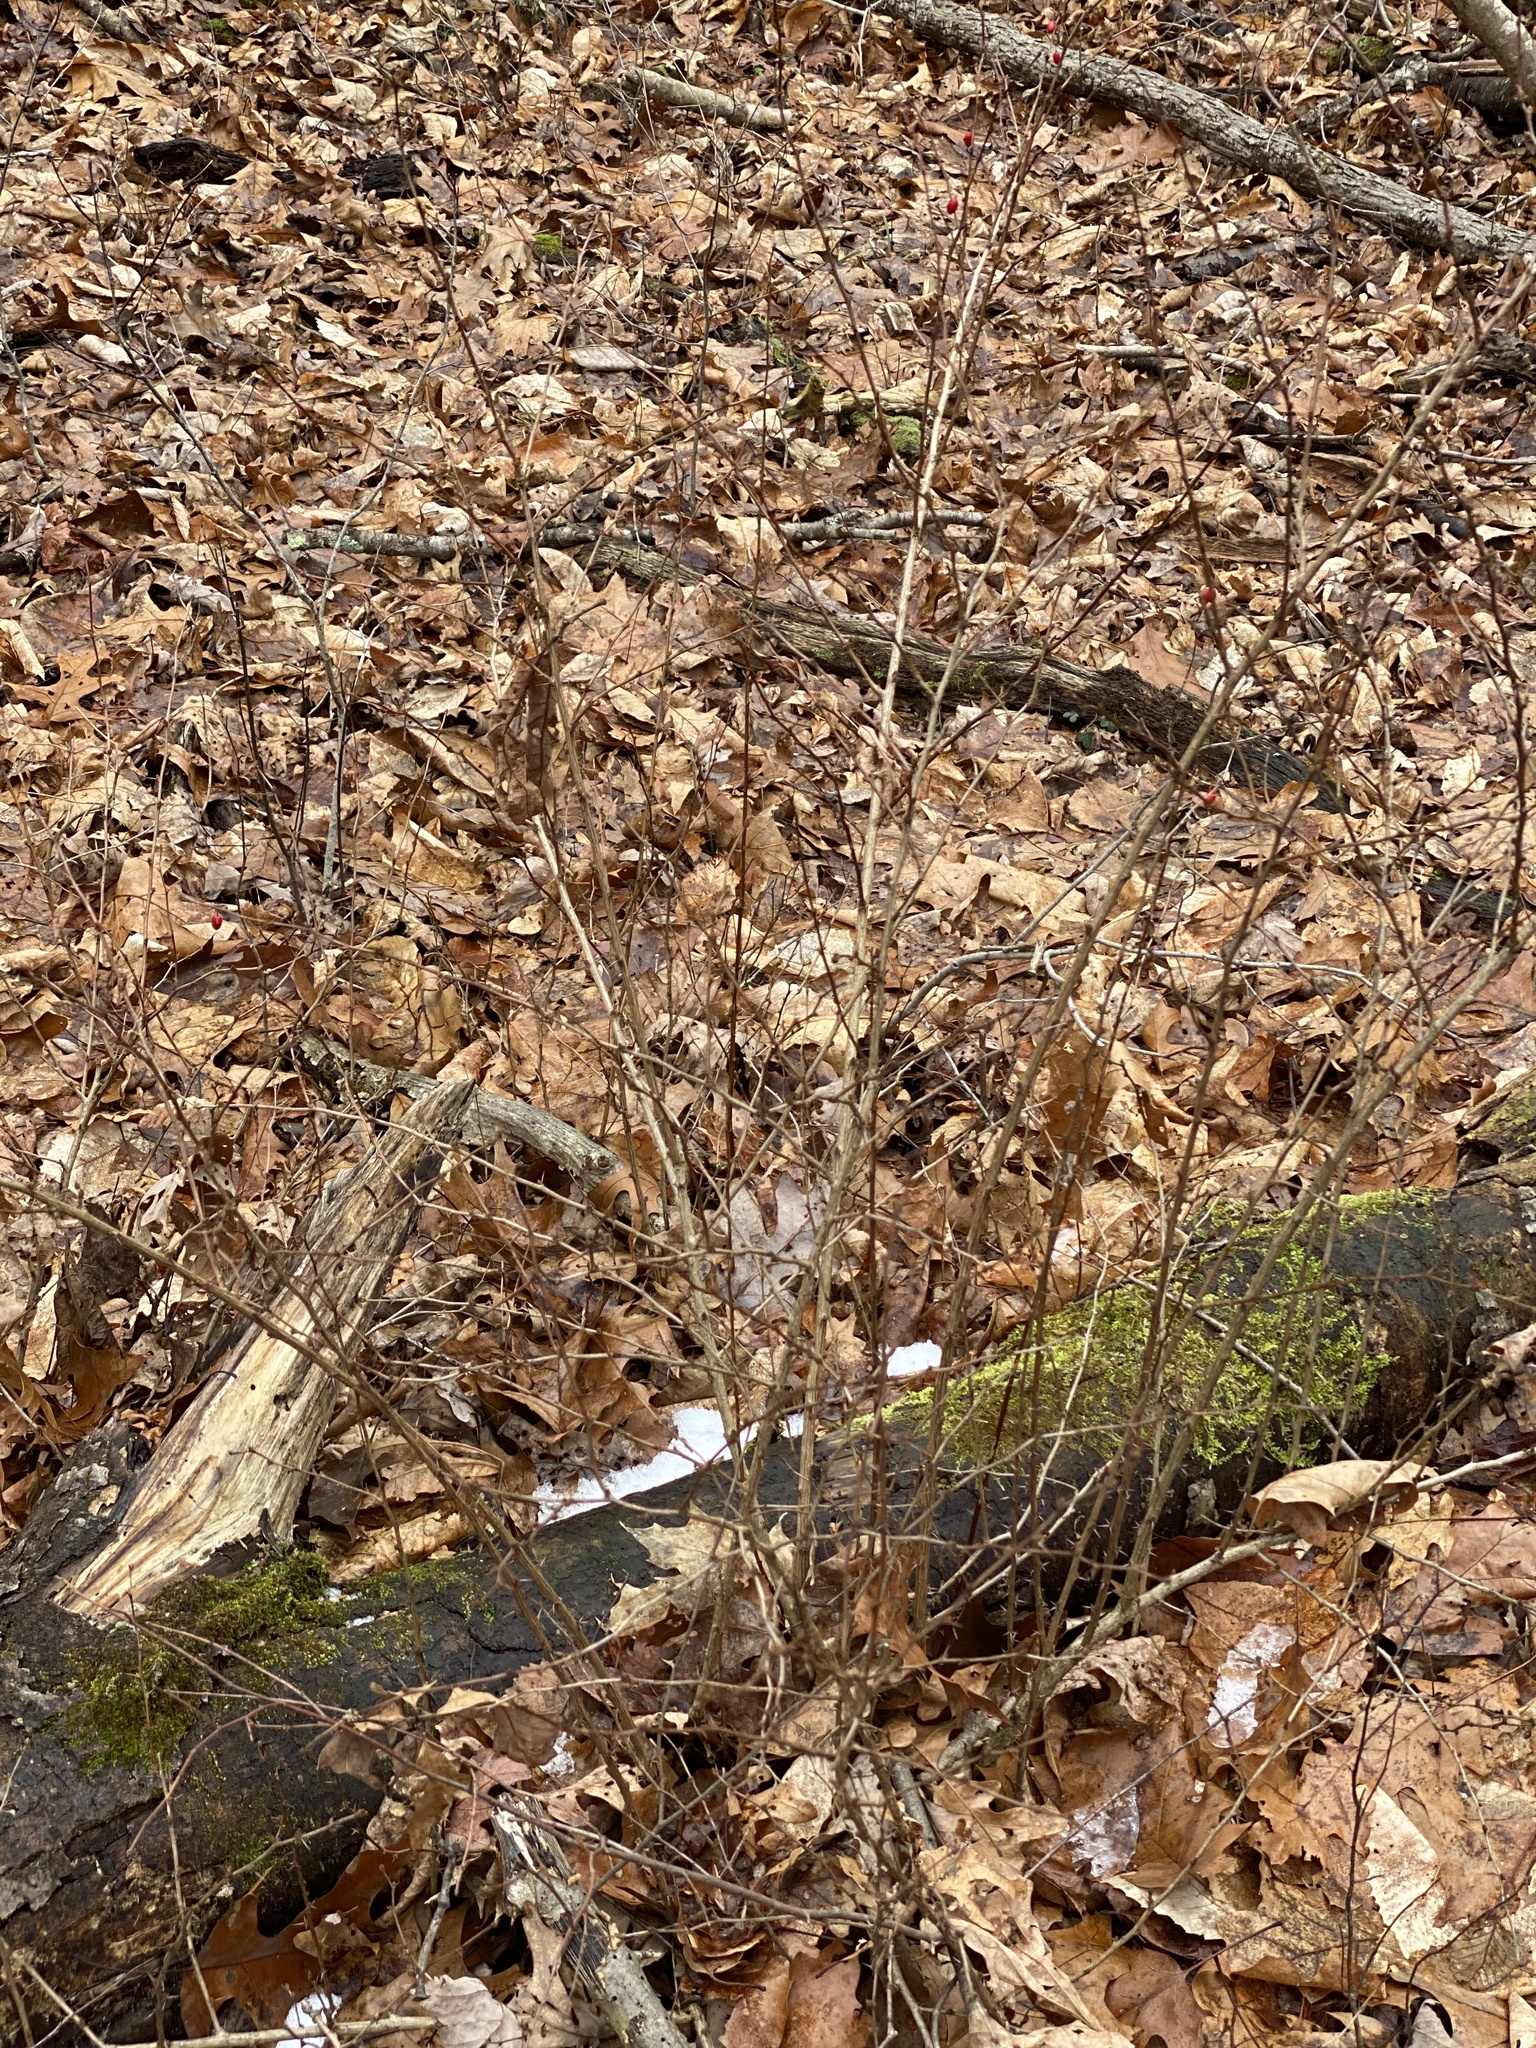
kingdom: Plantae
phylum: Tracheophyta
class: Magnoliopsida
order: Ranunculales
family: Berberidaceae
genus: Berberis
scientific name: Berberis thunbergii
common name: Japanese barberry
